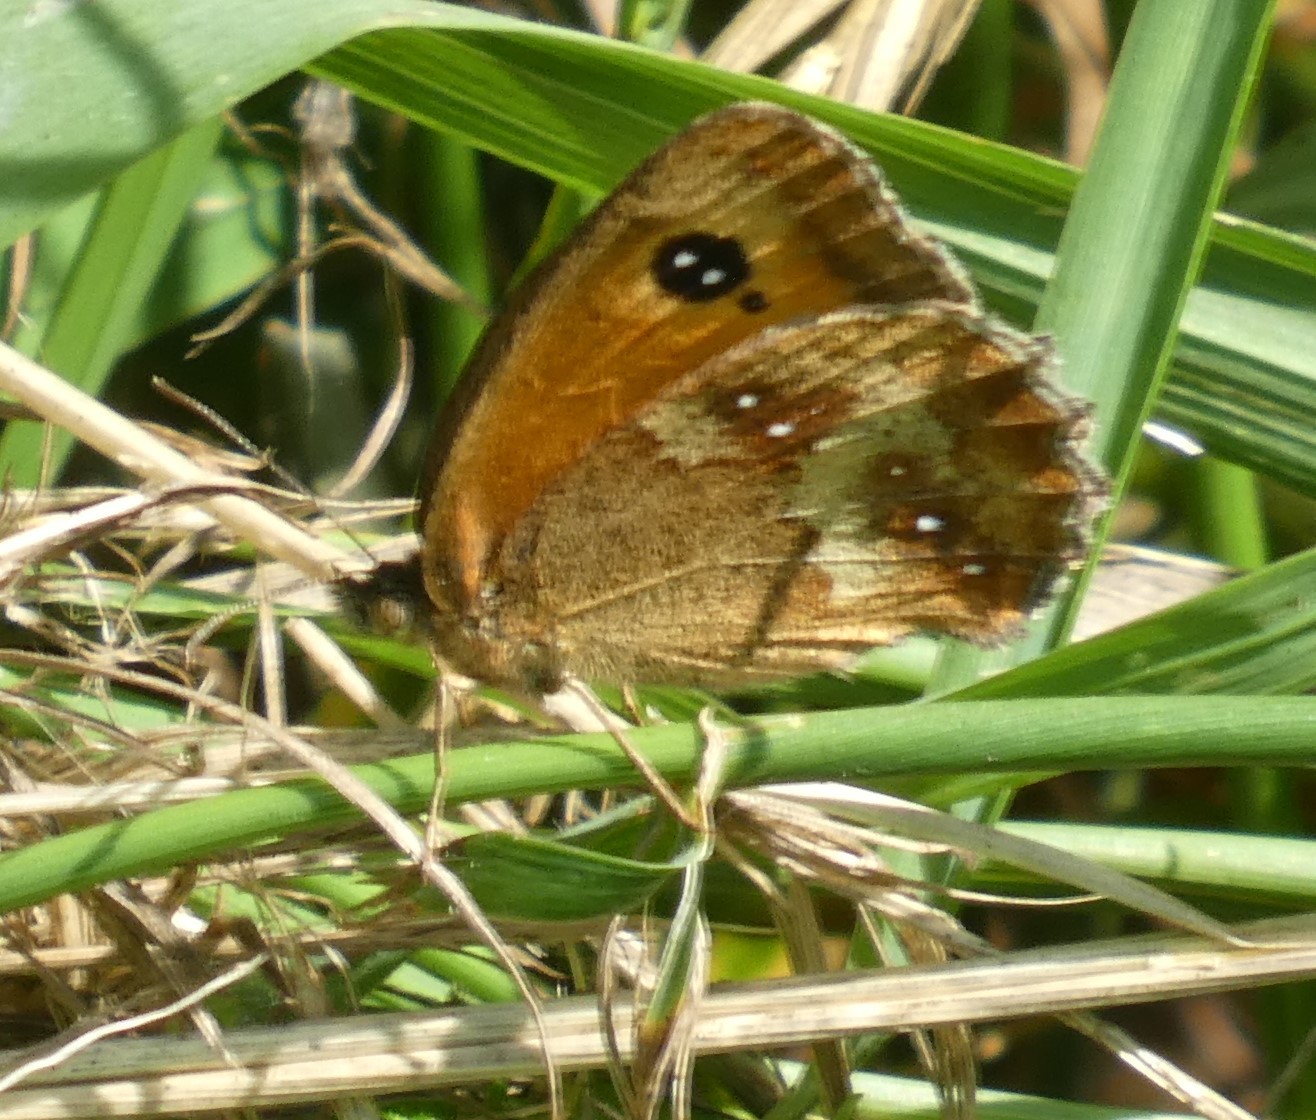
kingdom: Animalia
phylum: Arthropoda
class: Insecta
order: Lepidoptera
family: Nymphalidae
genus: Pyronia
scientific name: Pyronia tithonus
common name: Gatekeeper
